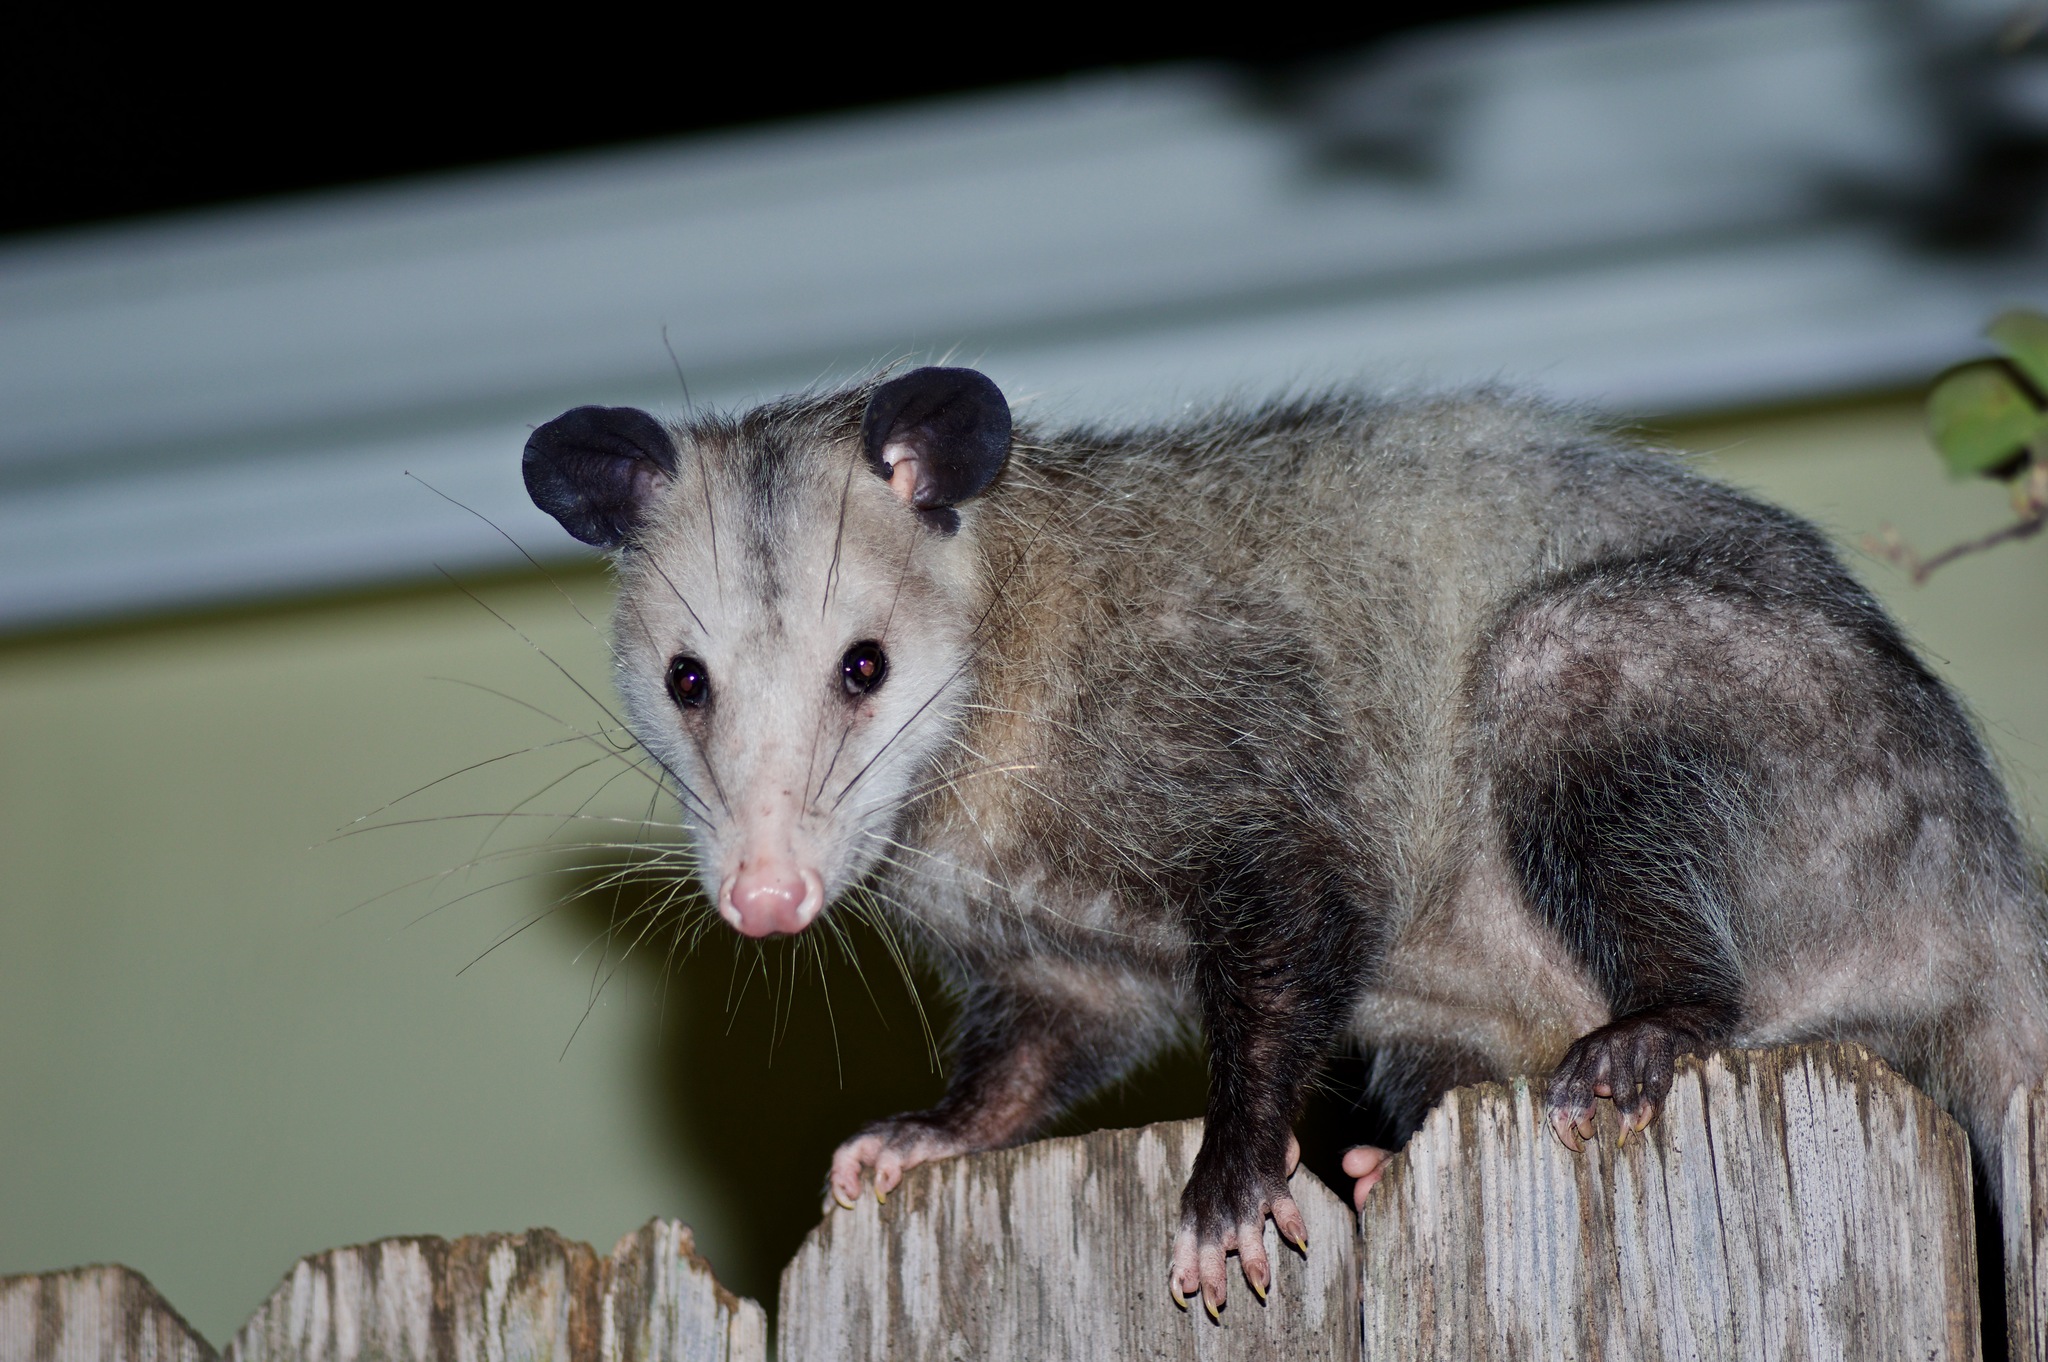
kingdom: Animalia
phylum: Chordata
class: Mammalia
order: Didelphimorphia
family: Didelphidae
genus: Didelphis
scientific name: Didelphis virginiana
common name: Virginia opossum
